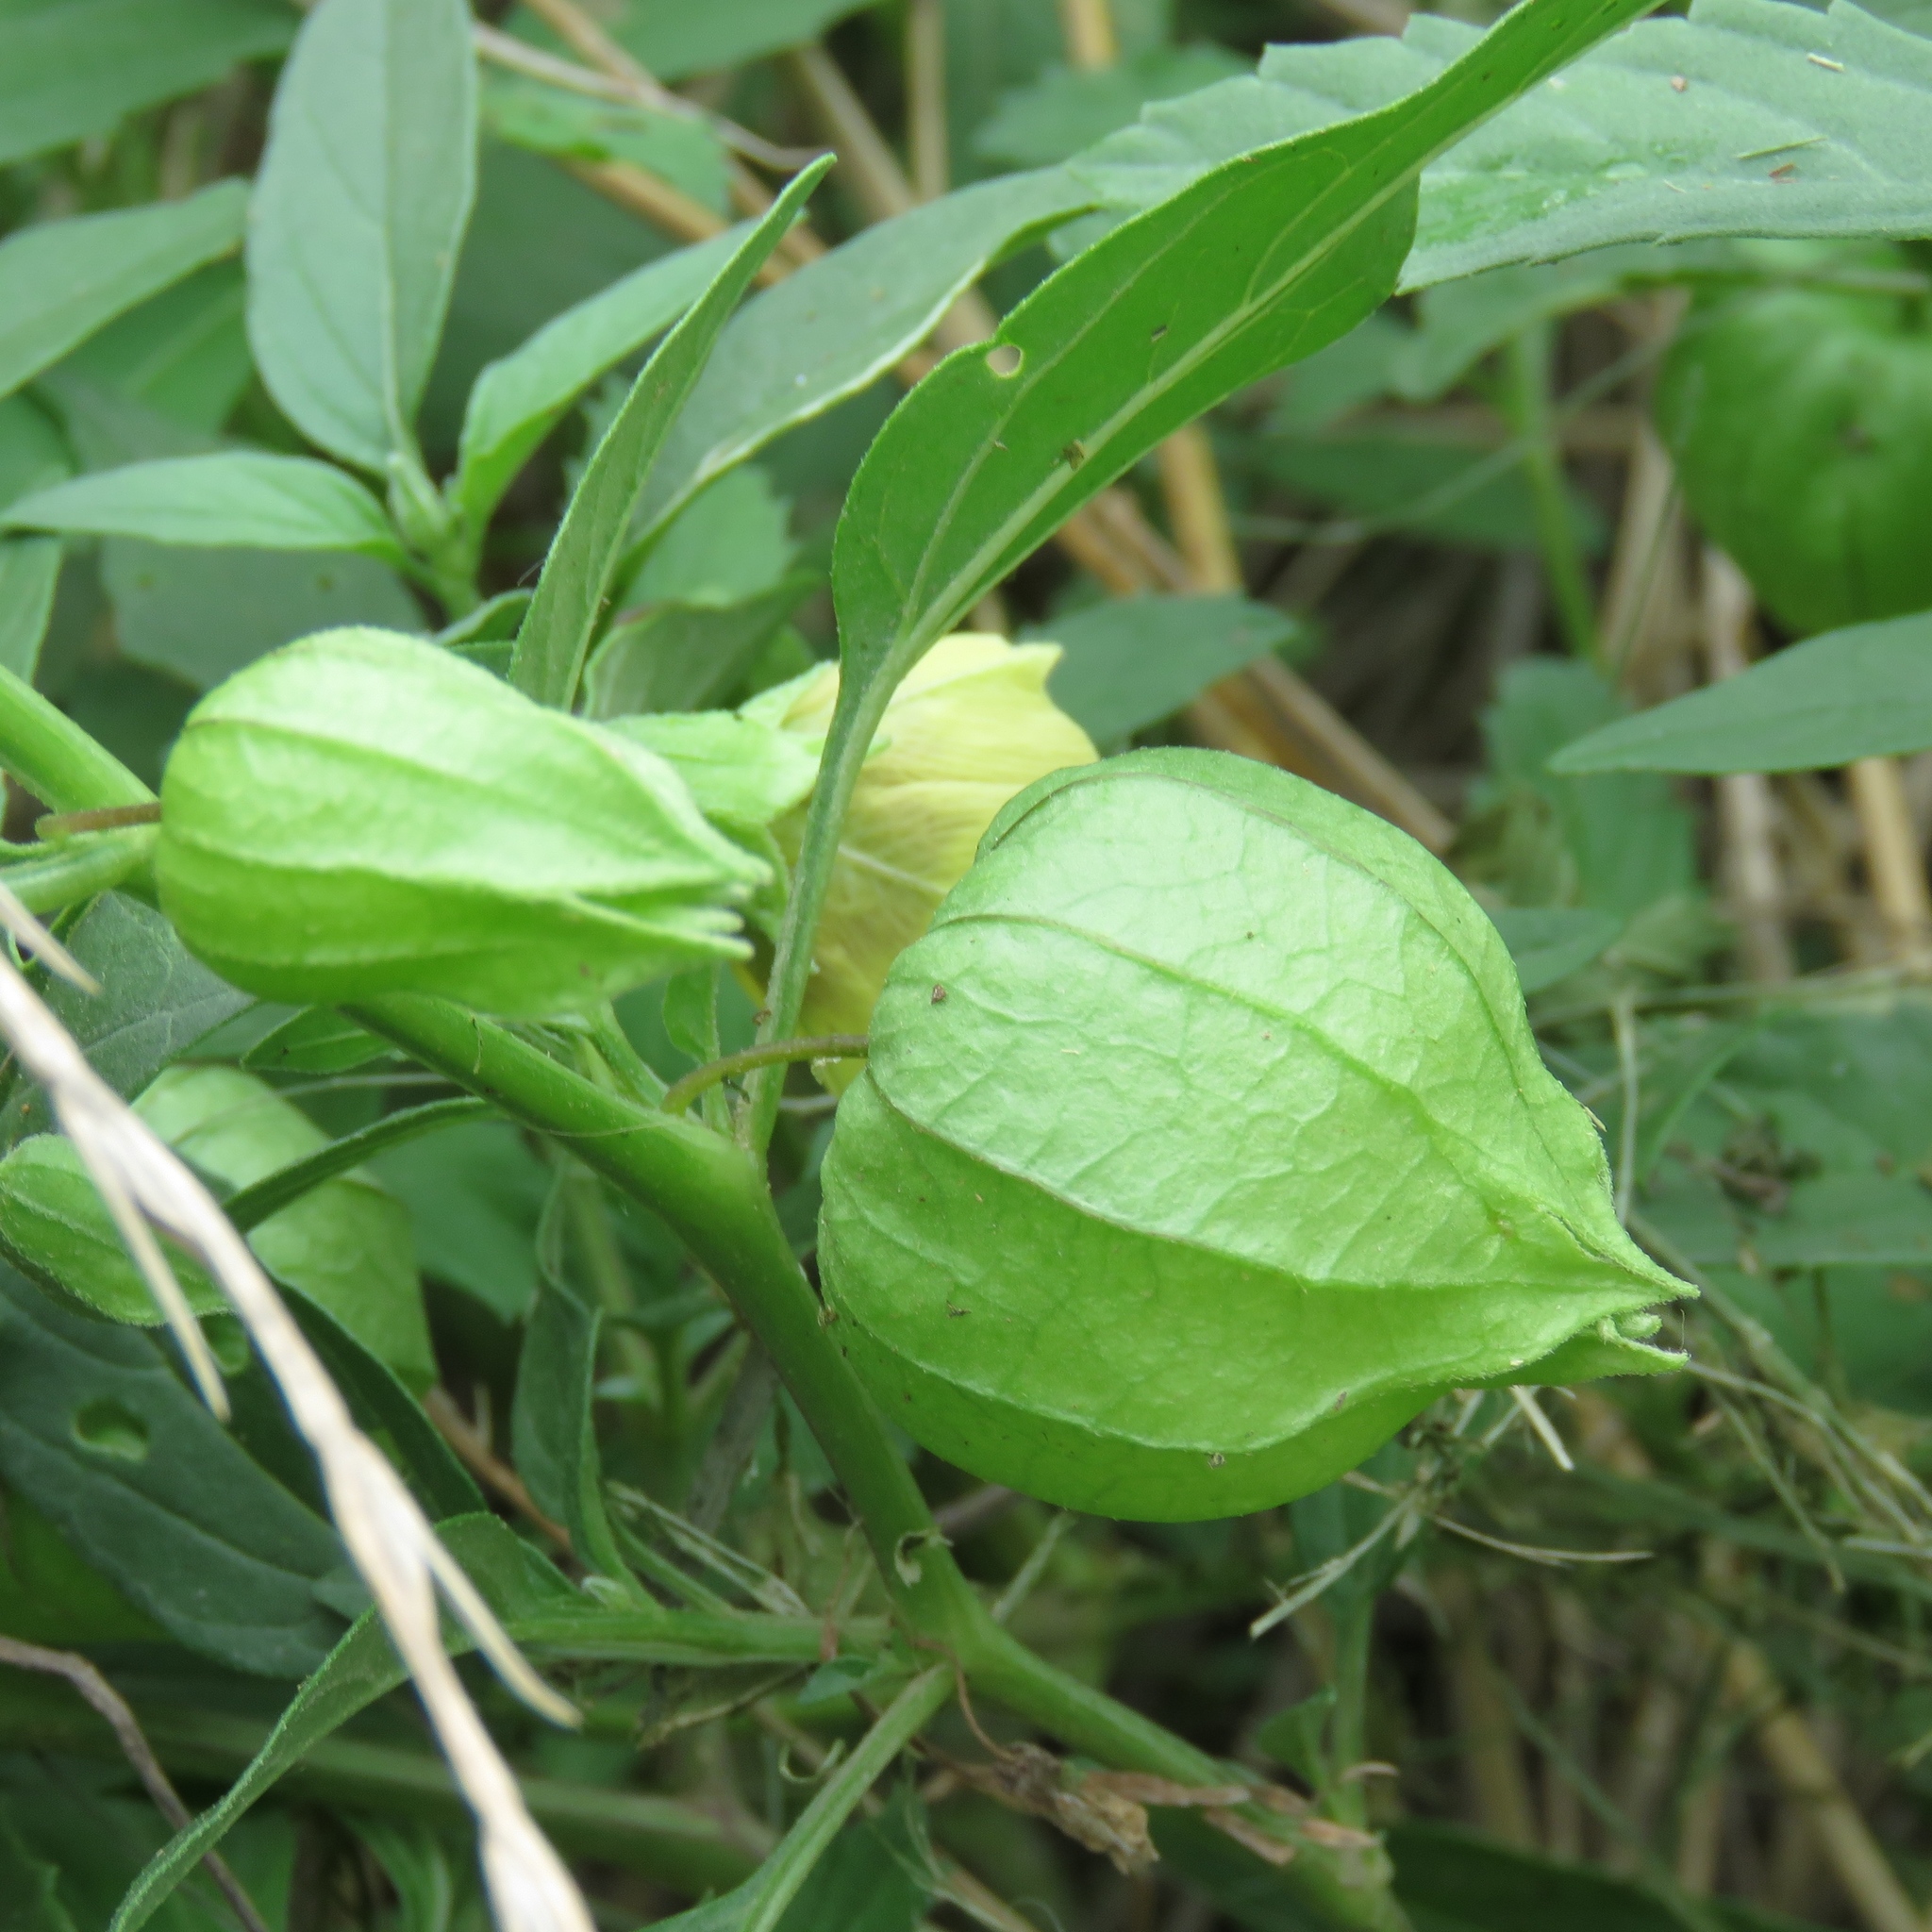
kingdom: Plantae
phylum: Tracheophyta
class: Magnoliopsida
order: Solanales
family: Solanaceae
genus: Physalis
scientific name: Physalis longifolia
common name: Common ground-cherry
